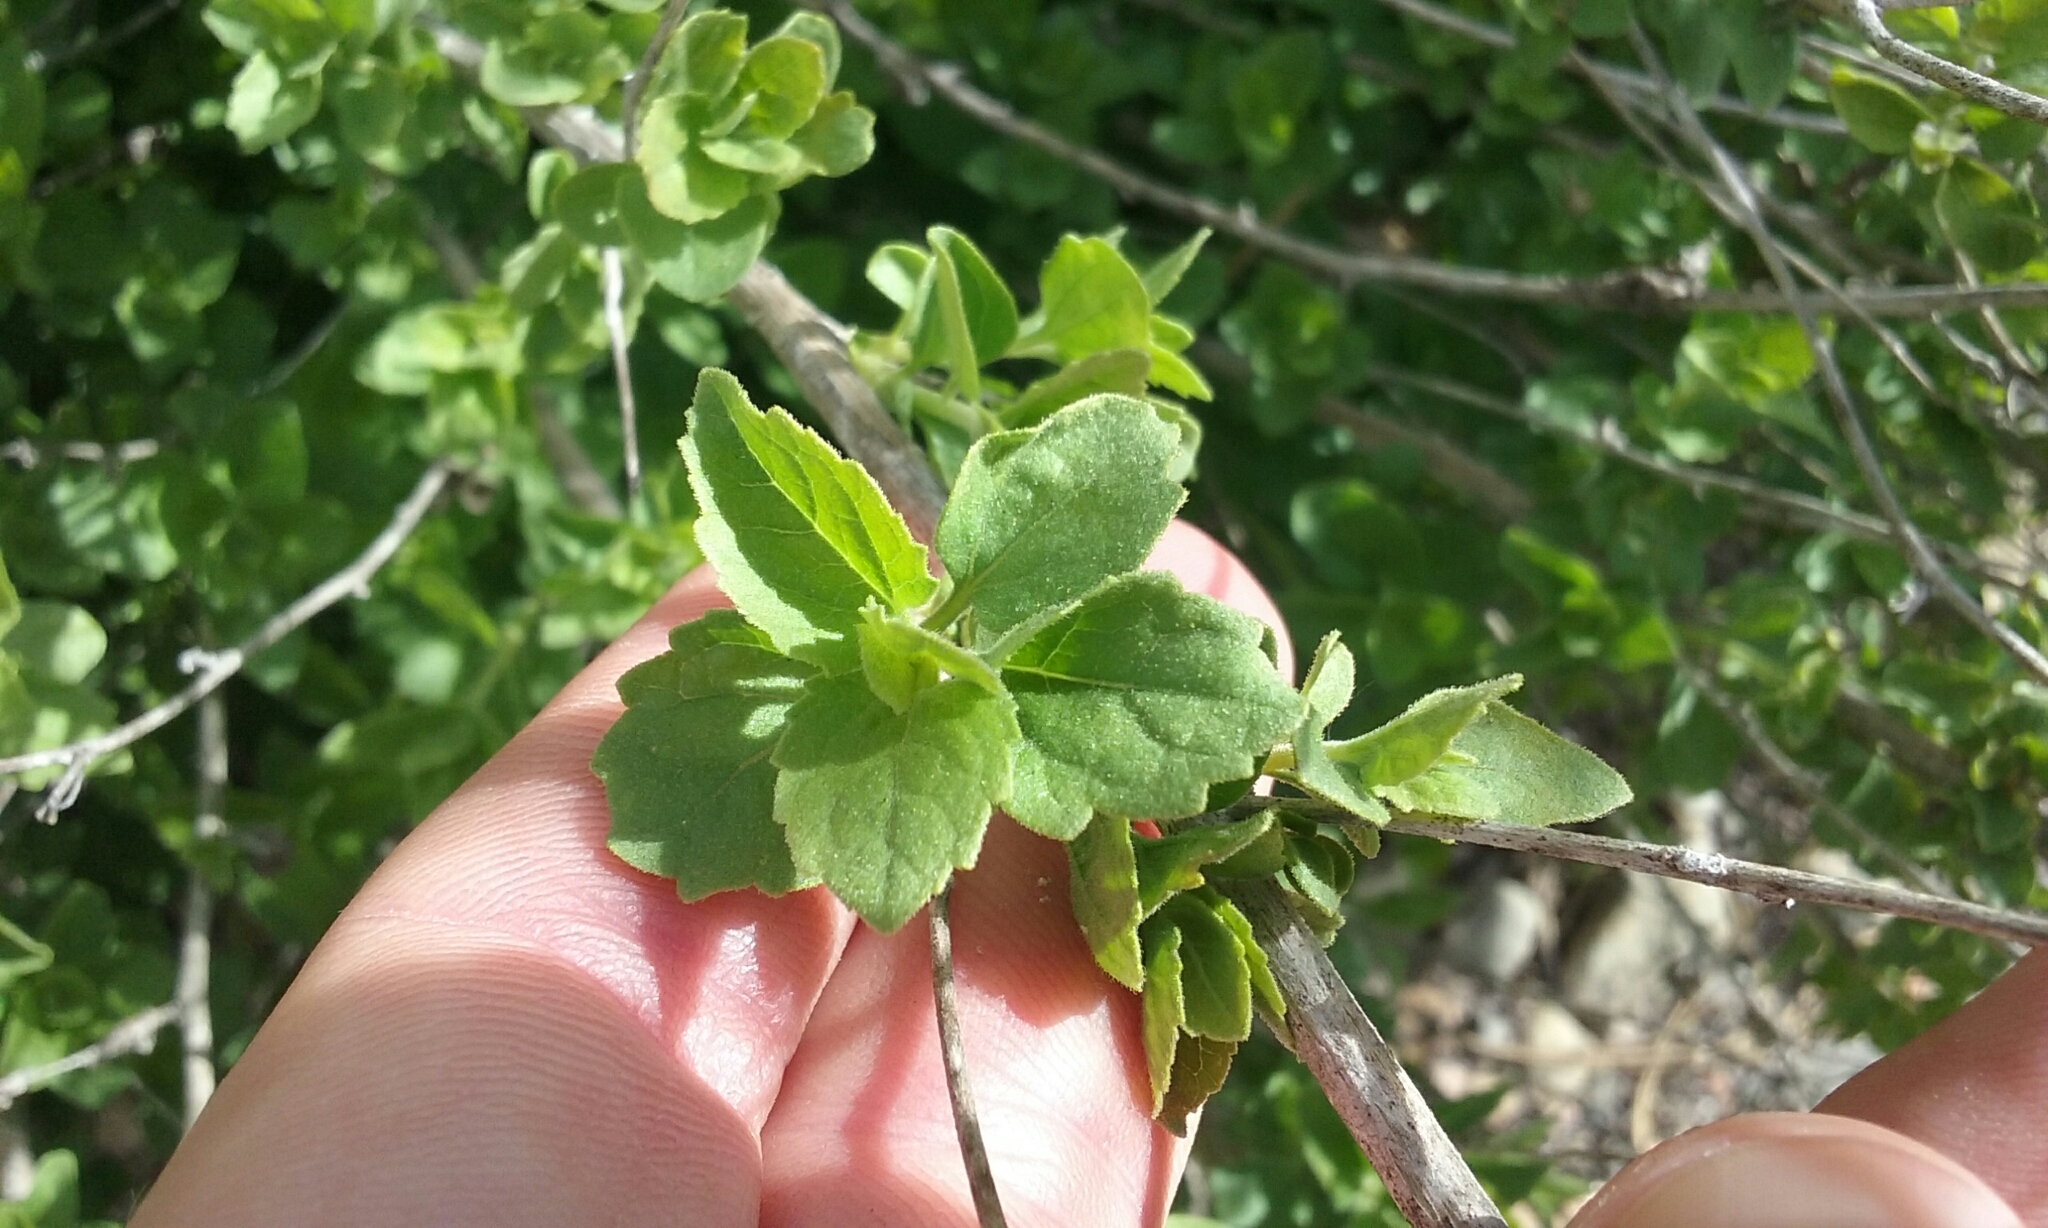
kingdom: Plantae
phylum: Tracheophyta
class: Magnoliopsida
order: Asterales
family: Asteraceae
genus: Brickellia
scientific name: Brickellia californica
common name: California brickellbush
